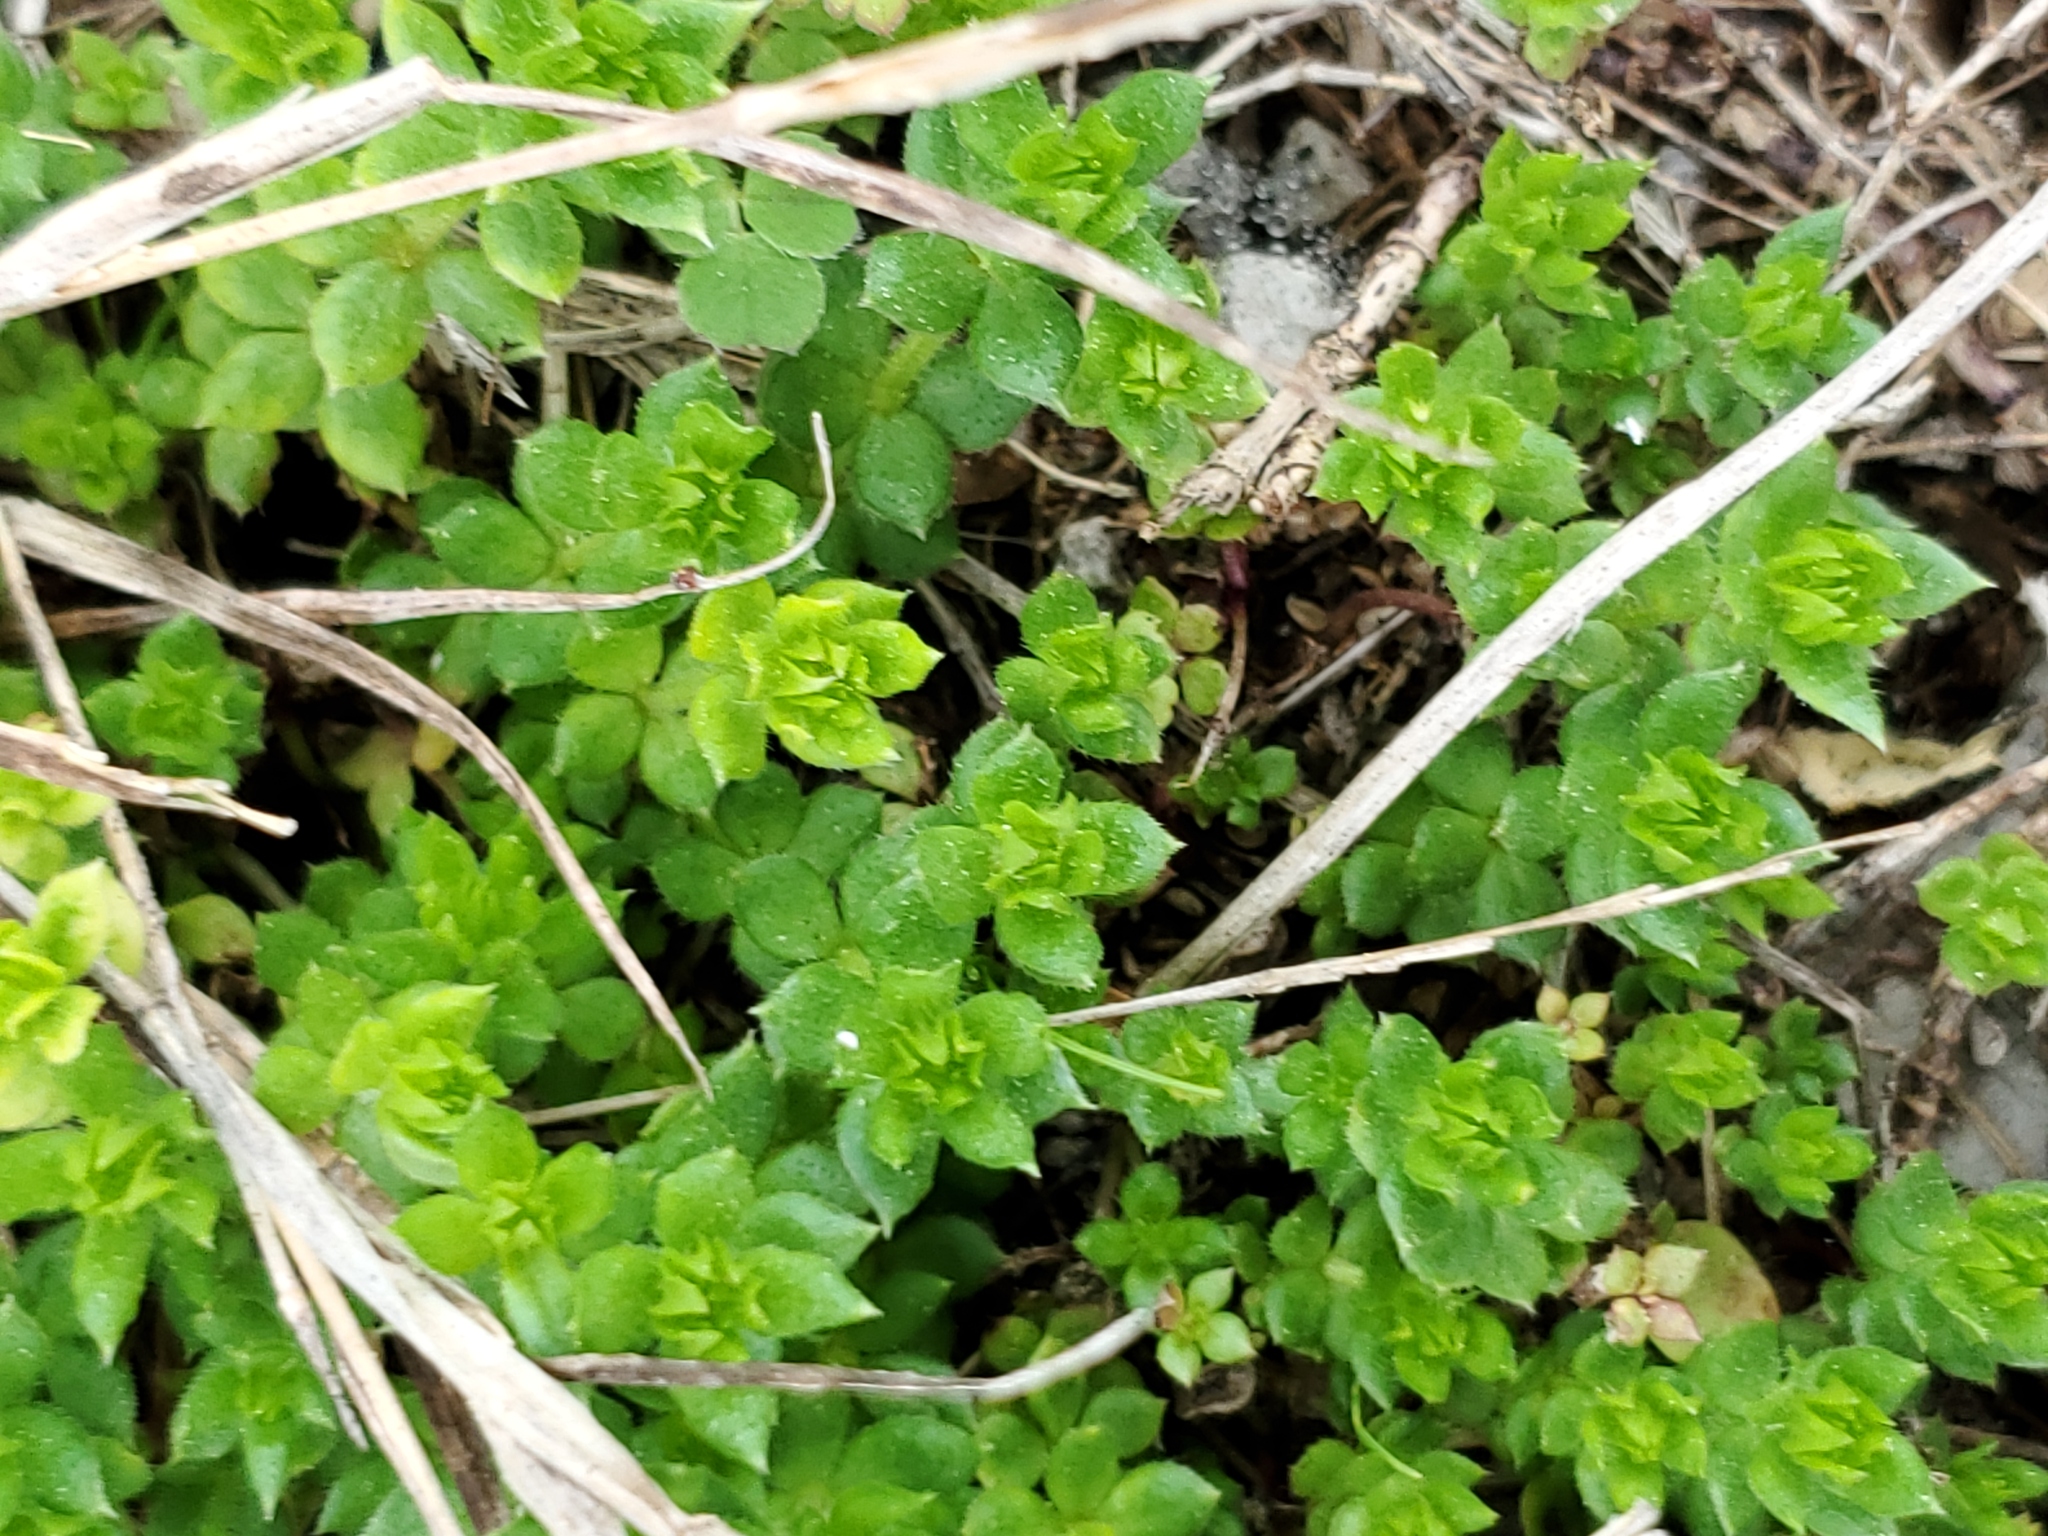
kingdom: Plantae
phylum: Tracheophyta
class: Magnoliopsida
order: Gentianales
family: Rubiaceae
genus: Sherardia
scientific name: Sherardia arvensis
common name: Field madder
